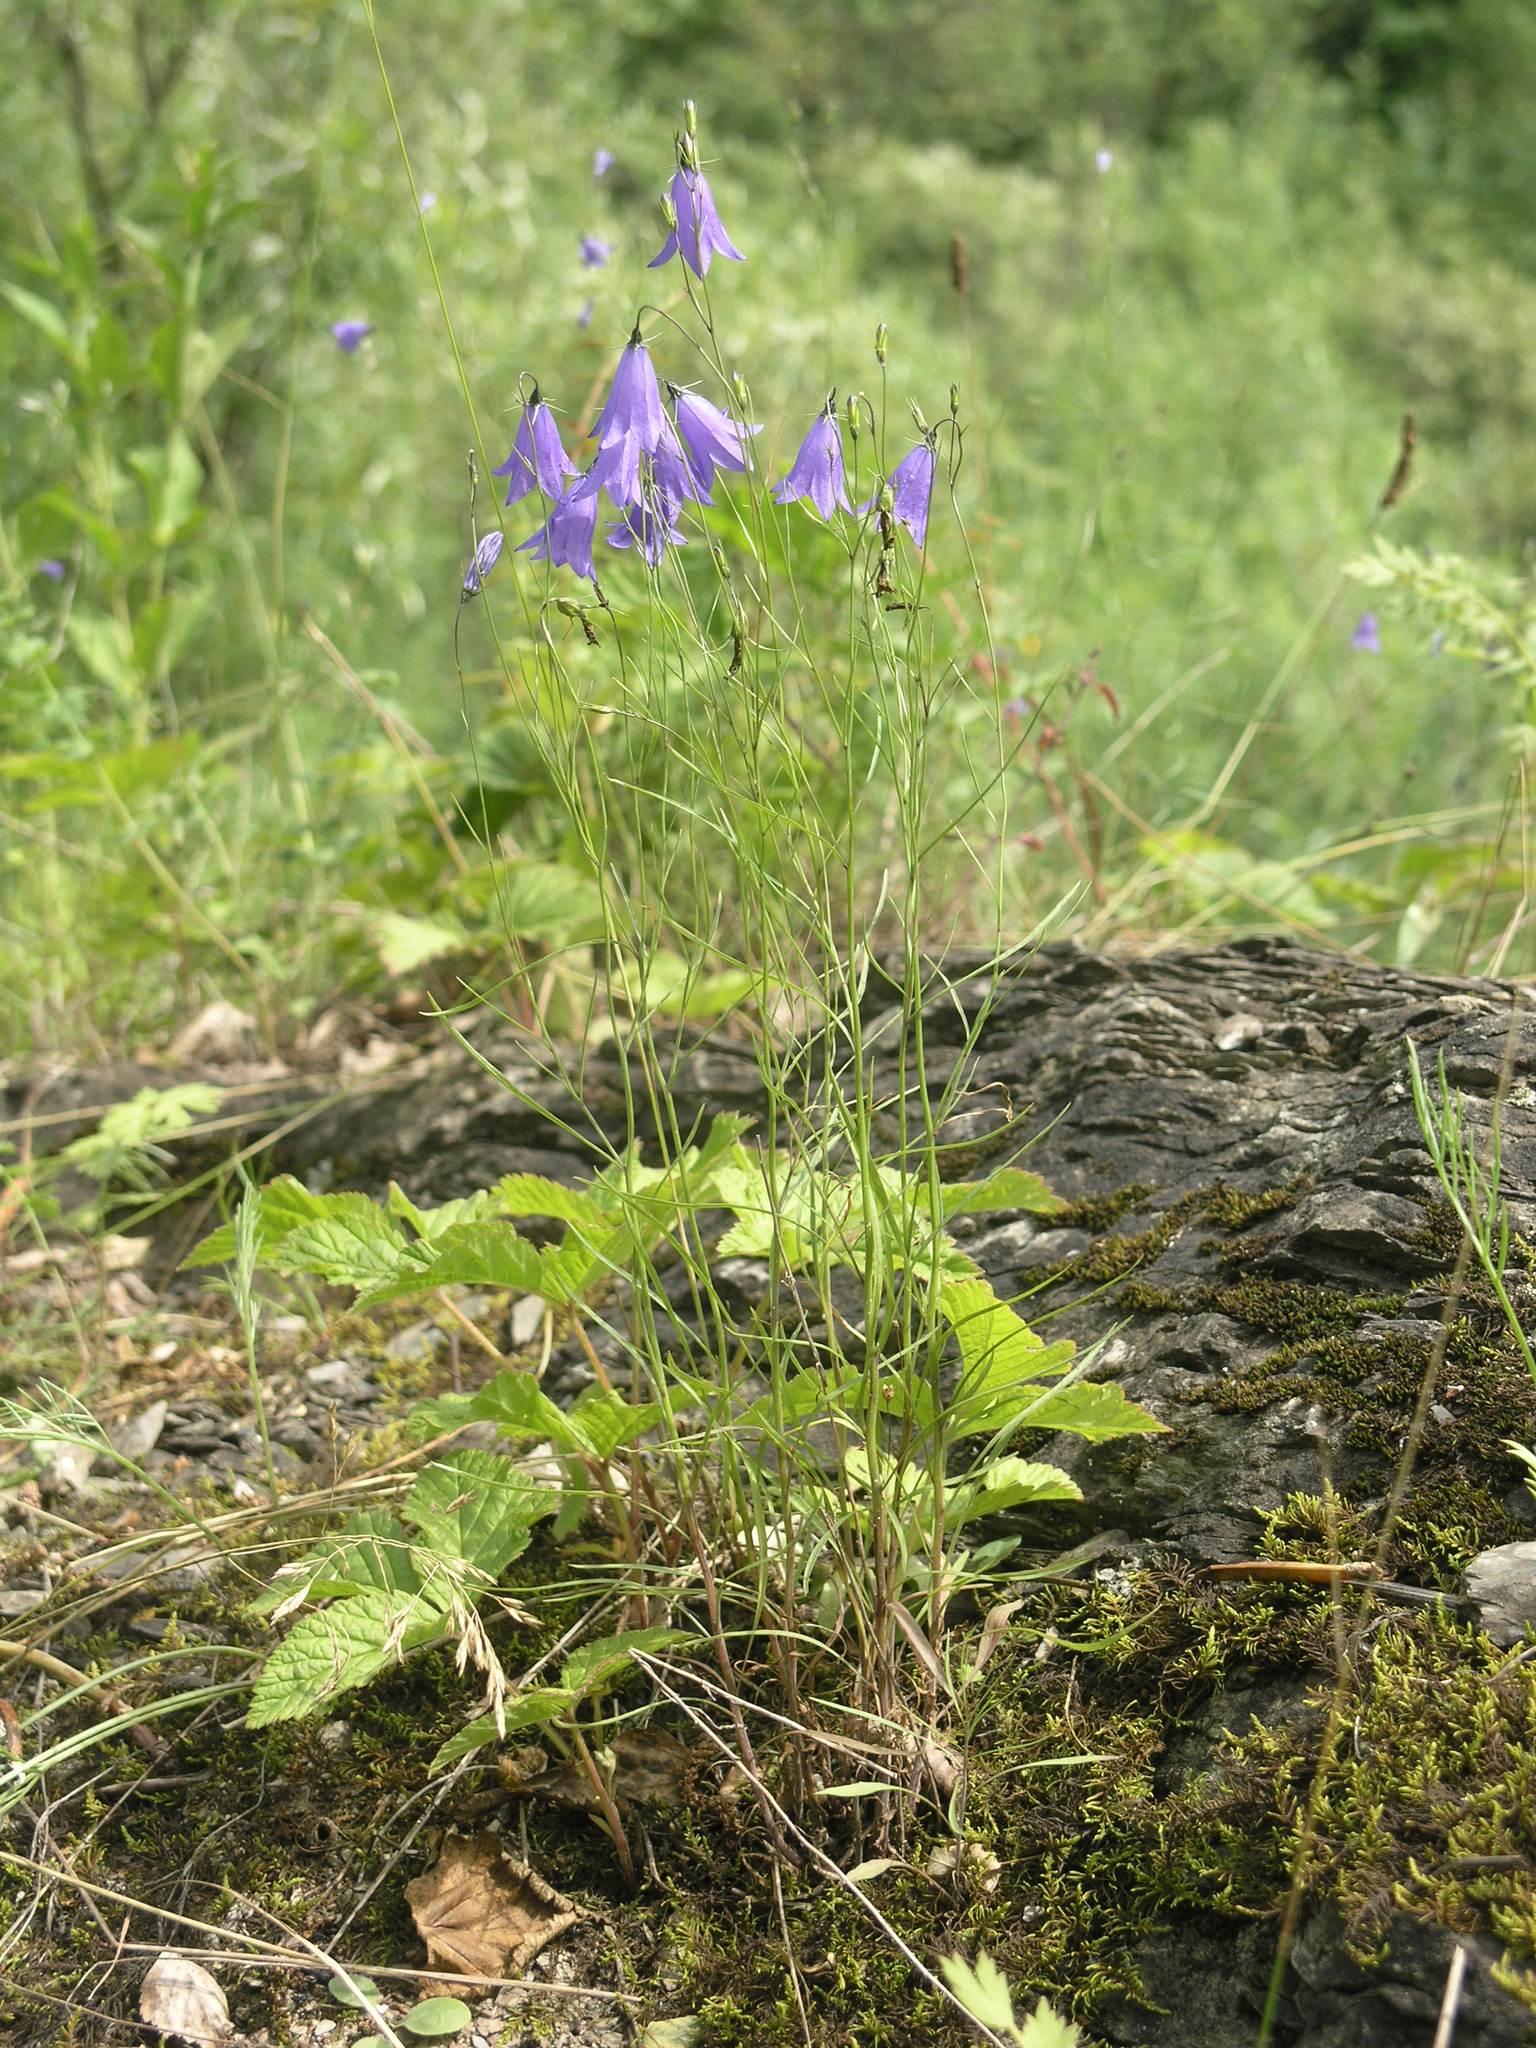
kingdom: Plantae
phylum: Tracheophyta
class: Magnoliopsida
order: Asterales
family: Campanulaceae
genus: Campanula
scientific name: Campanula rotundifolia
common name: Harebell
